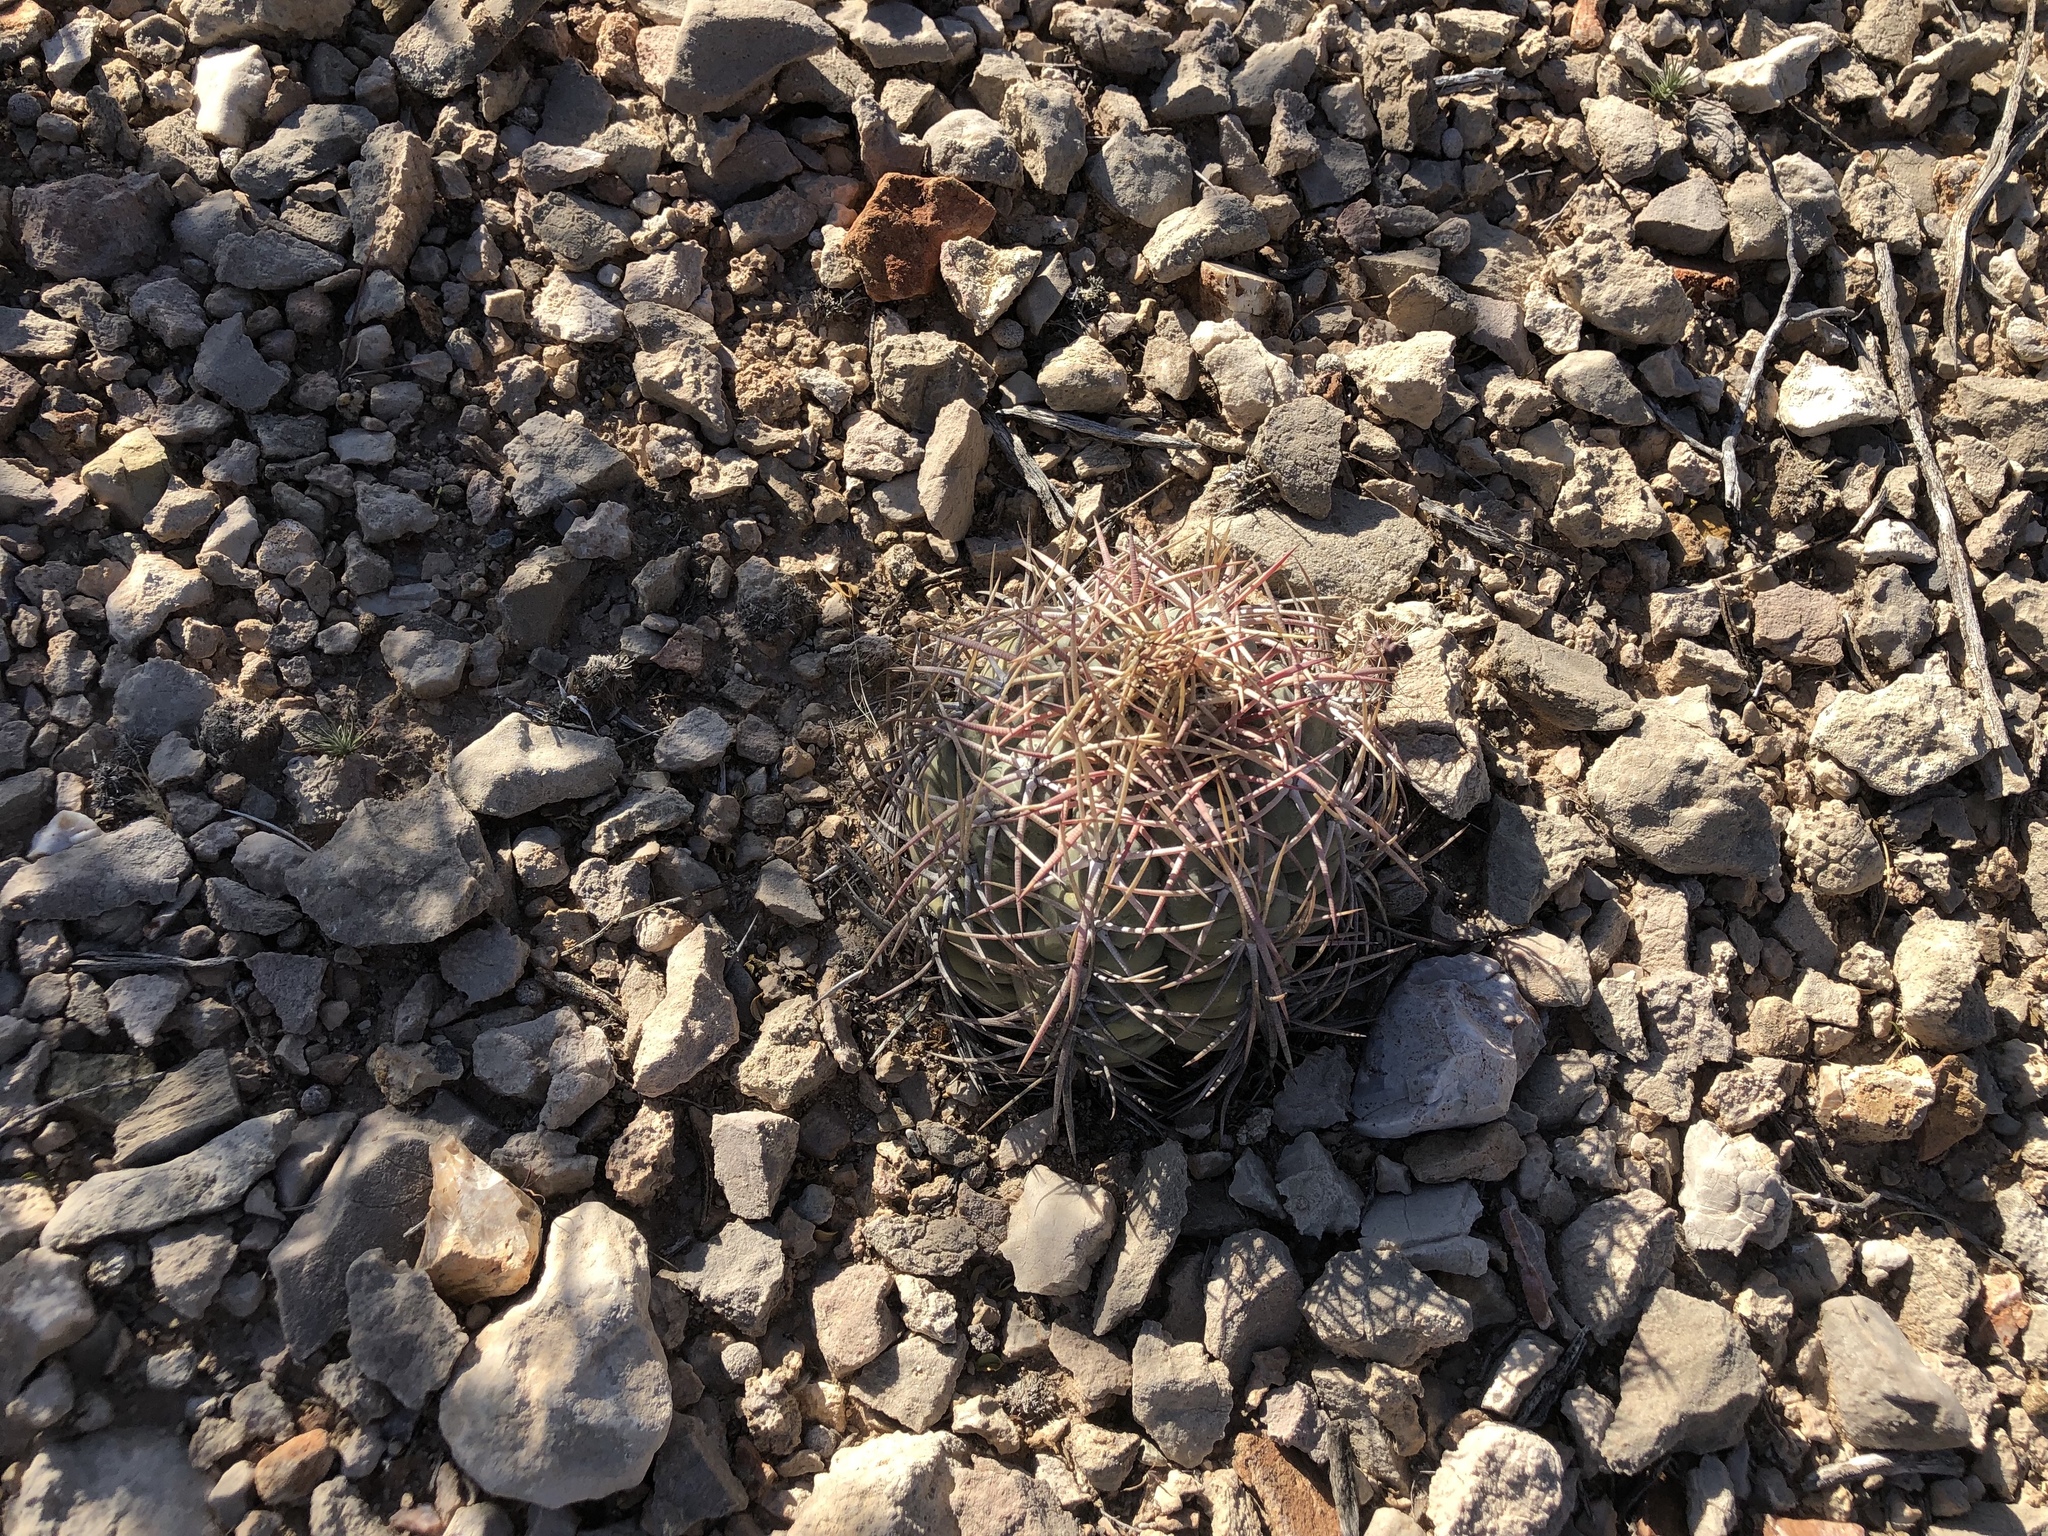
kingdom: Plantae
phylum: Tracheophyta
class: Magnoliopsida
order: Caryophyllales
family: Cactaceae
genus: Echinocactus
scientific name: Echinocactus horizonthalonius
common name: Devilshead
